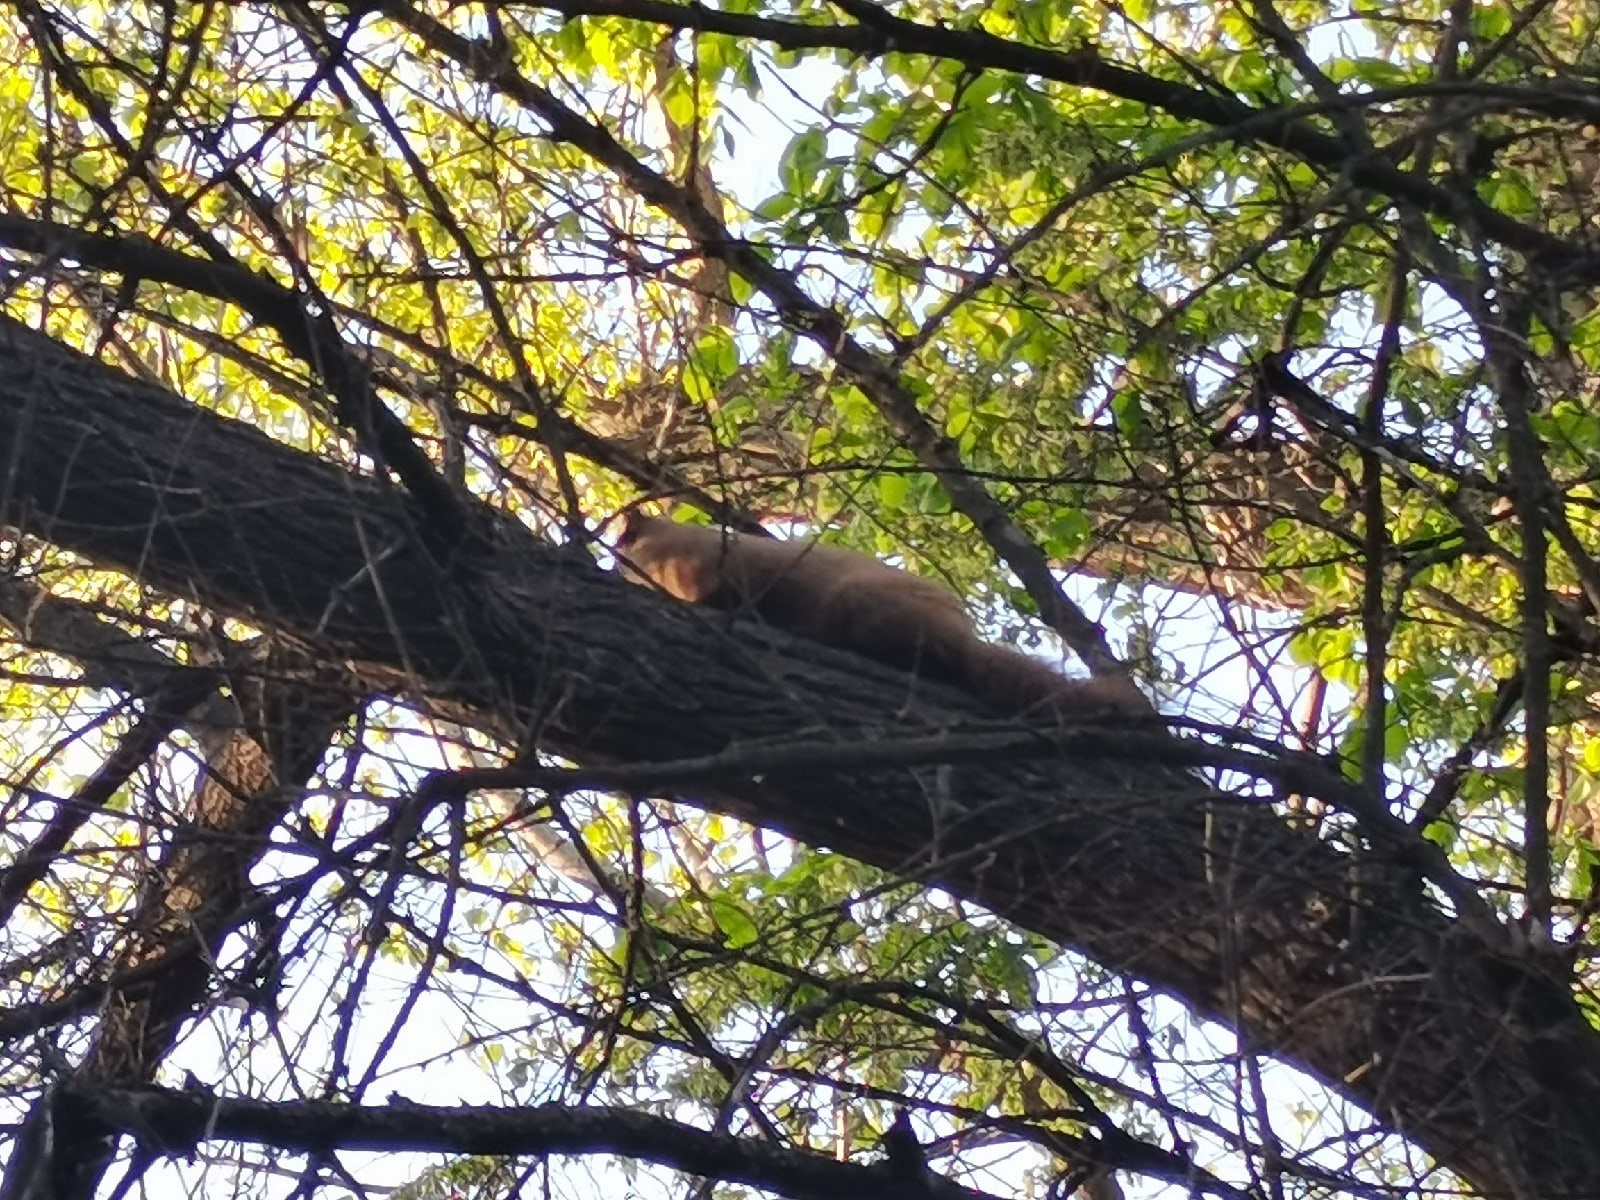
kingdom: Animalia
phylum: Chordata
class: Mammalia
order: Carnivora
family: Mustelidae
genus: Martes
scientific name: Martes martes
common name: European pine marten
